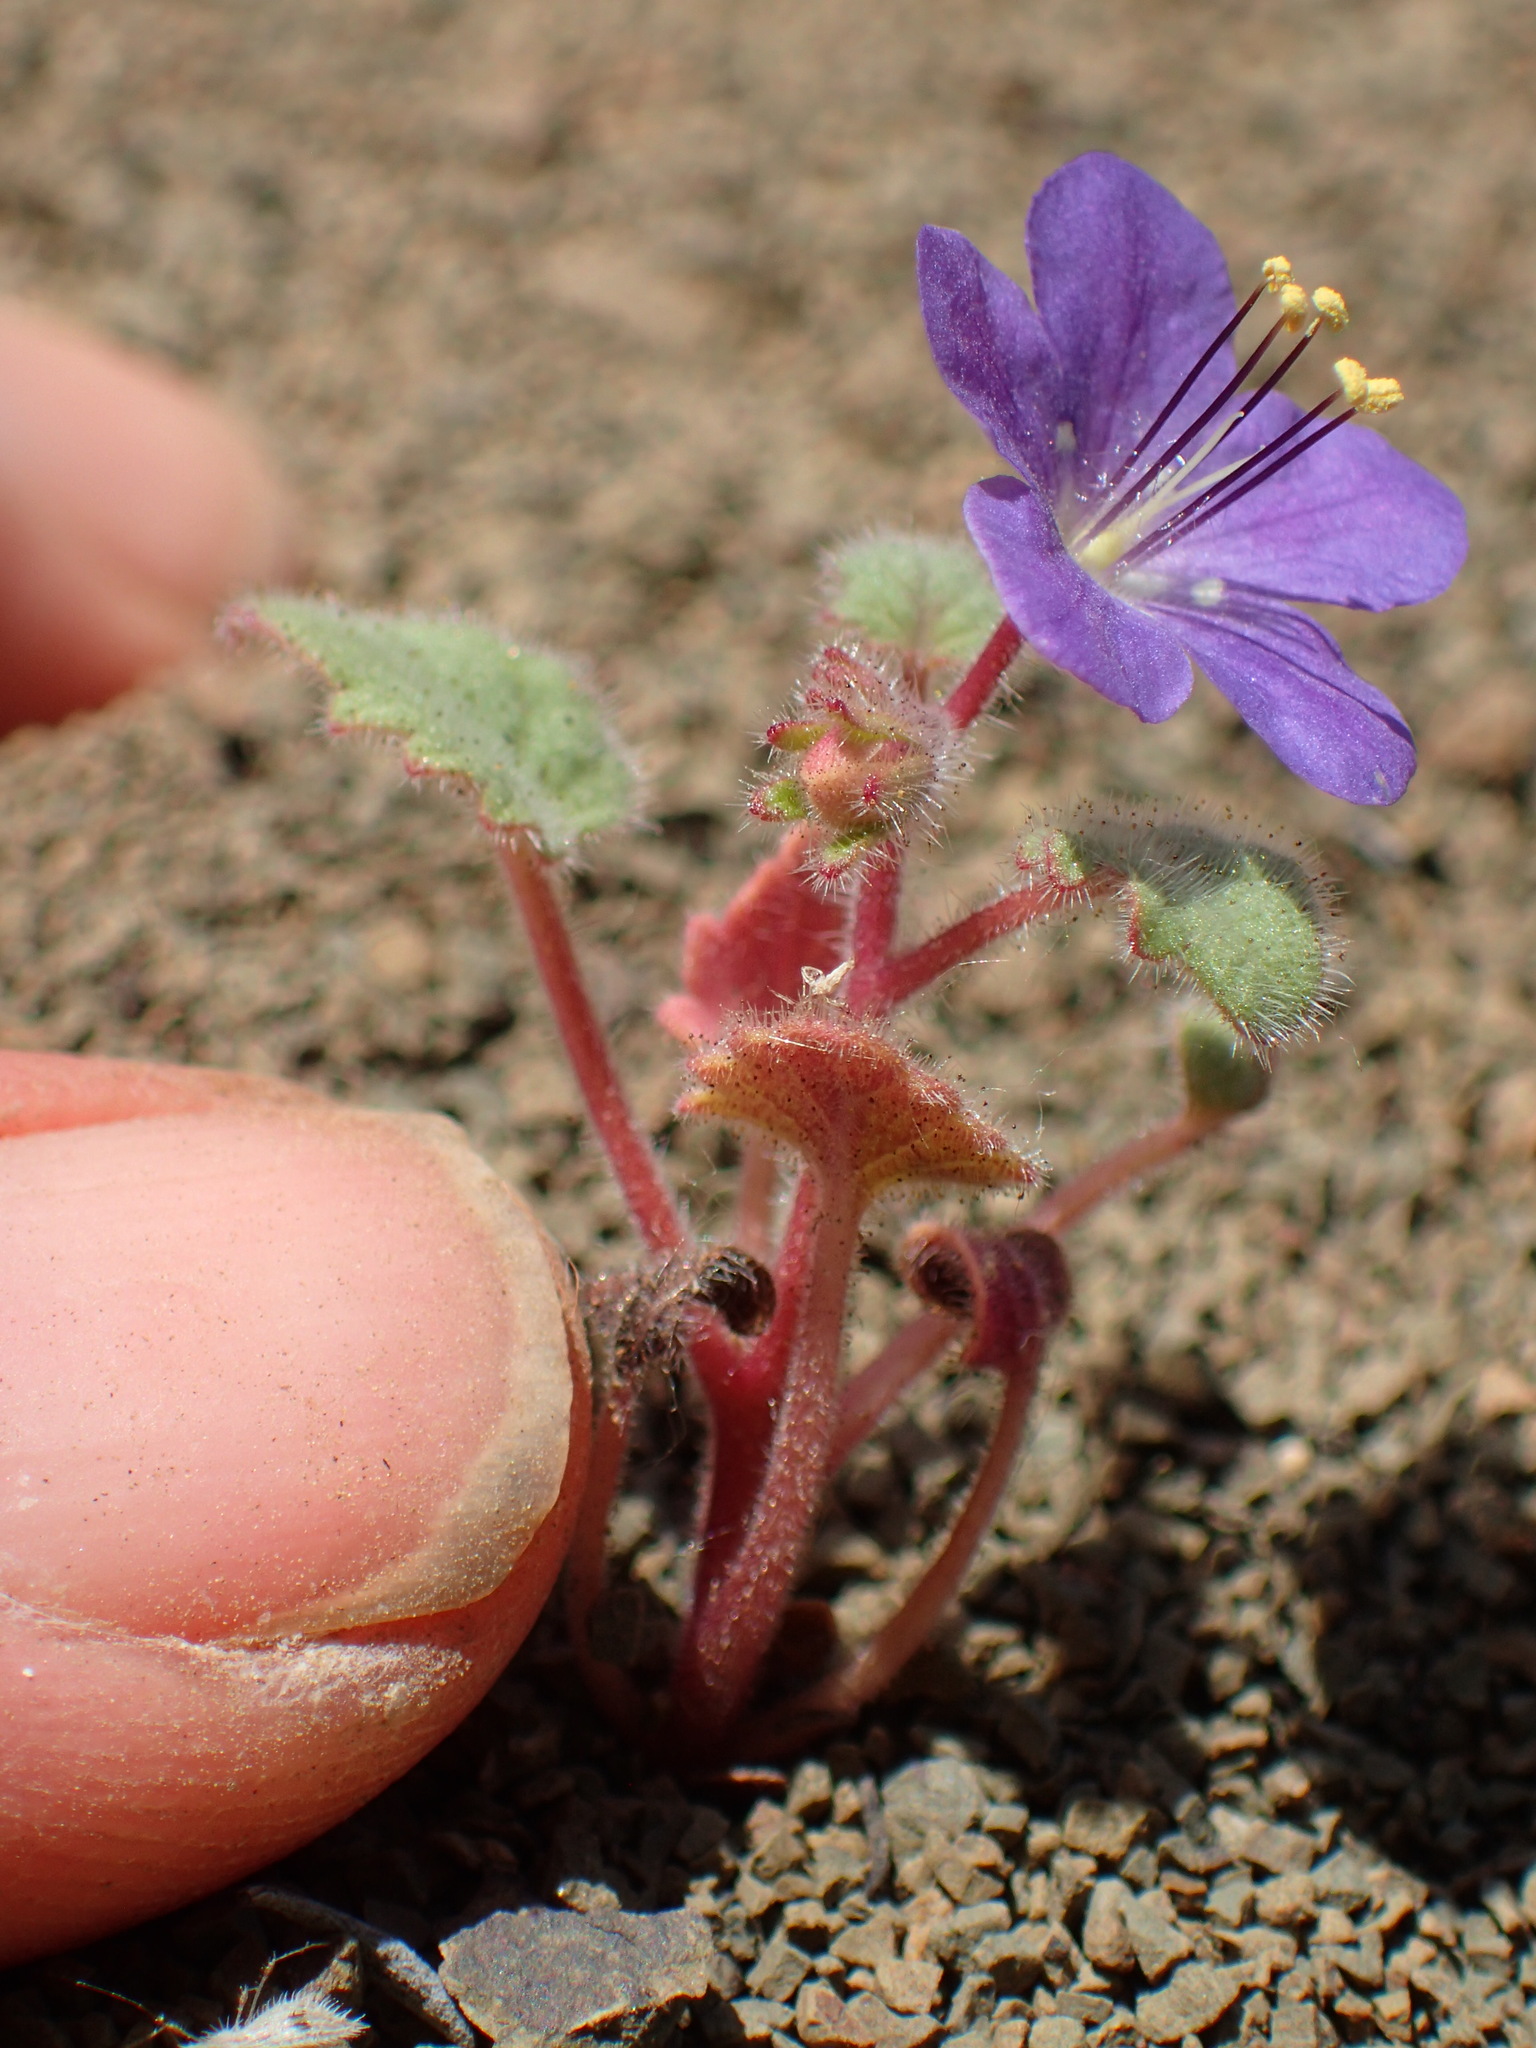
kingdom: Plantae
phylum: Tracheophyta
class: Magnoliopsida
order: Boraginales
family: Hydrophyllaceae
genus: Phacelia
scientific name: Phacelia longipes
